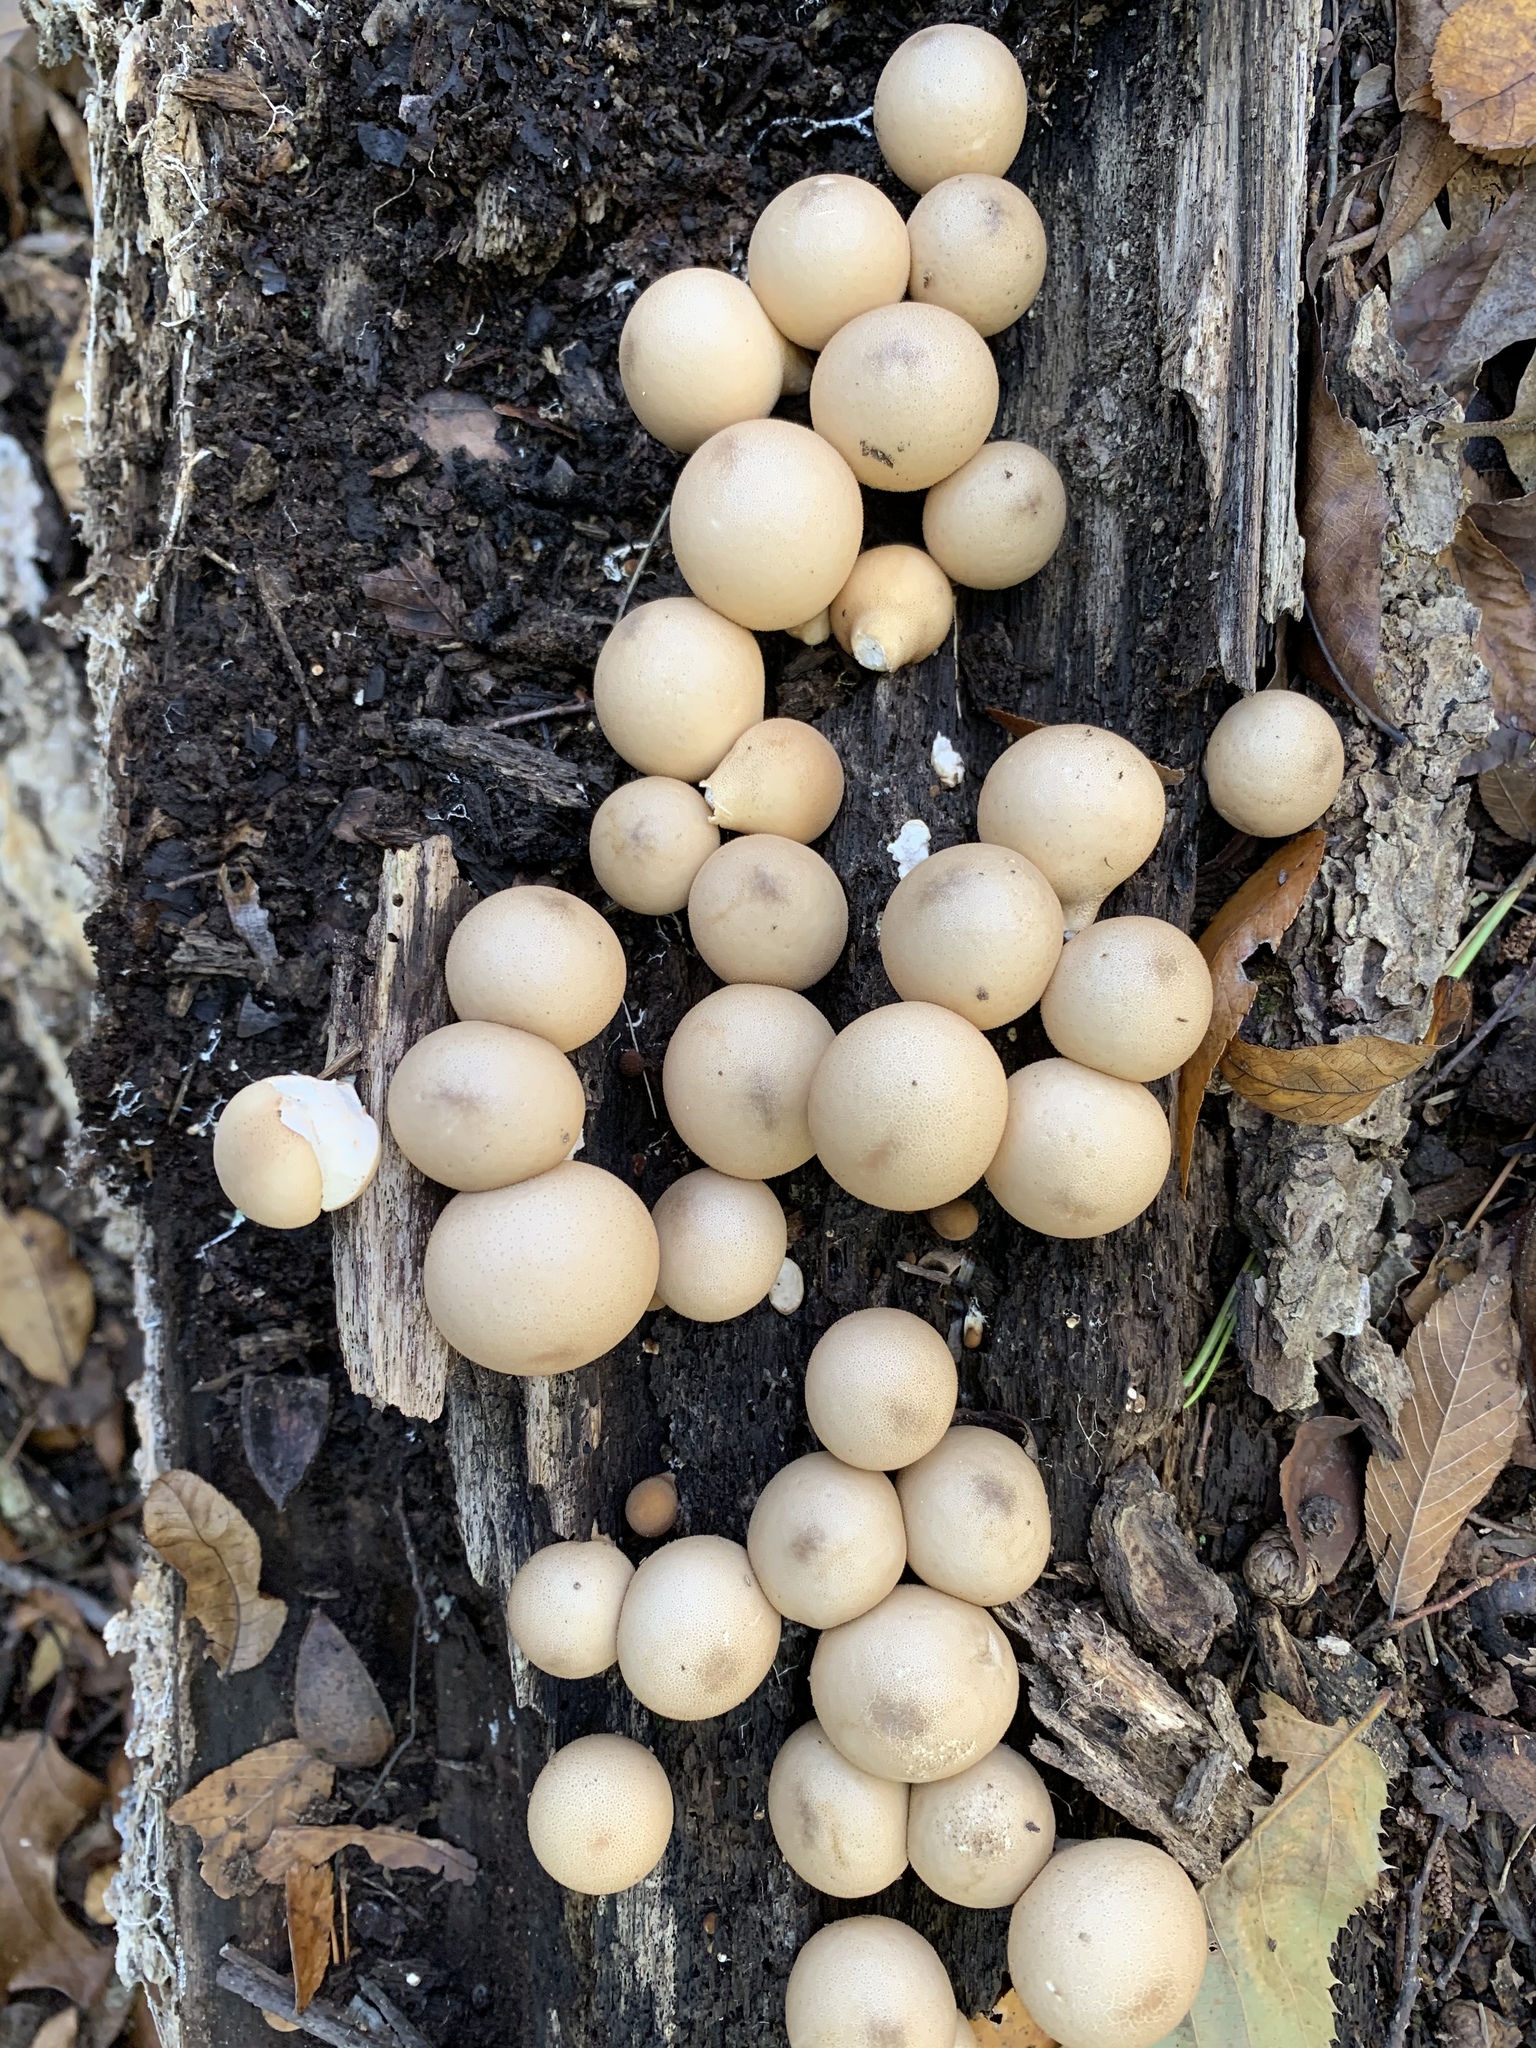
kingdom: Fungi
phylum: Basidiomycota
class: Agaricomycetes
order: Agaricales
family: Lycoperdaceae
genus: Apioperdon
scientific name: Apioperdon pyriforme
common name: Pear-shaped puffball
